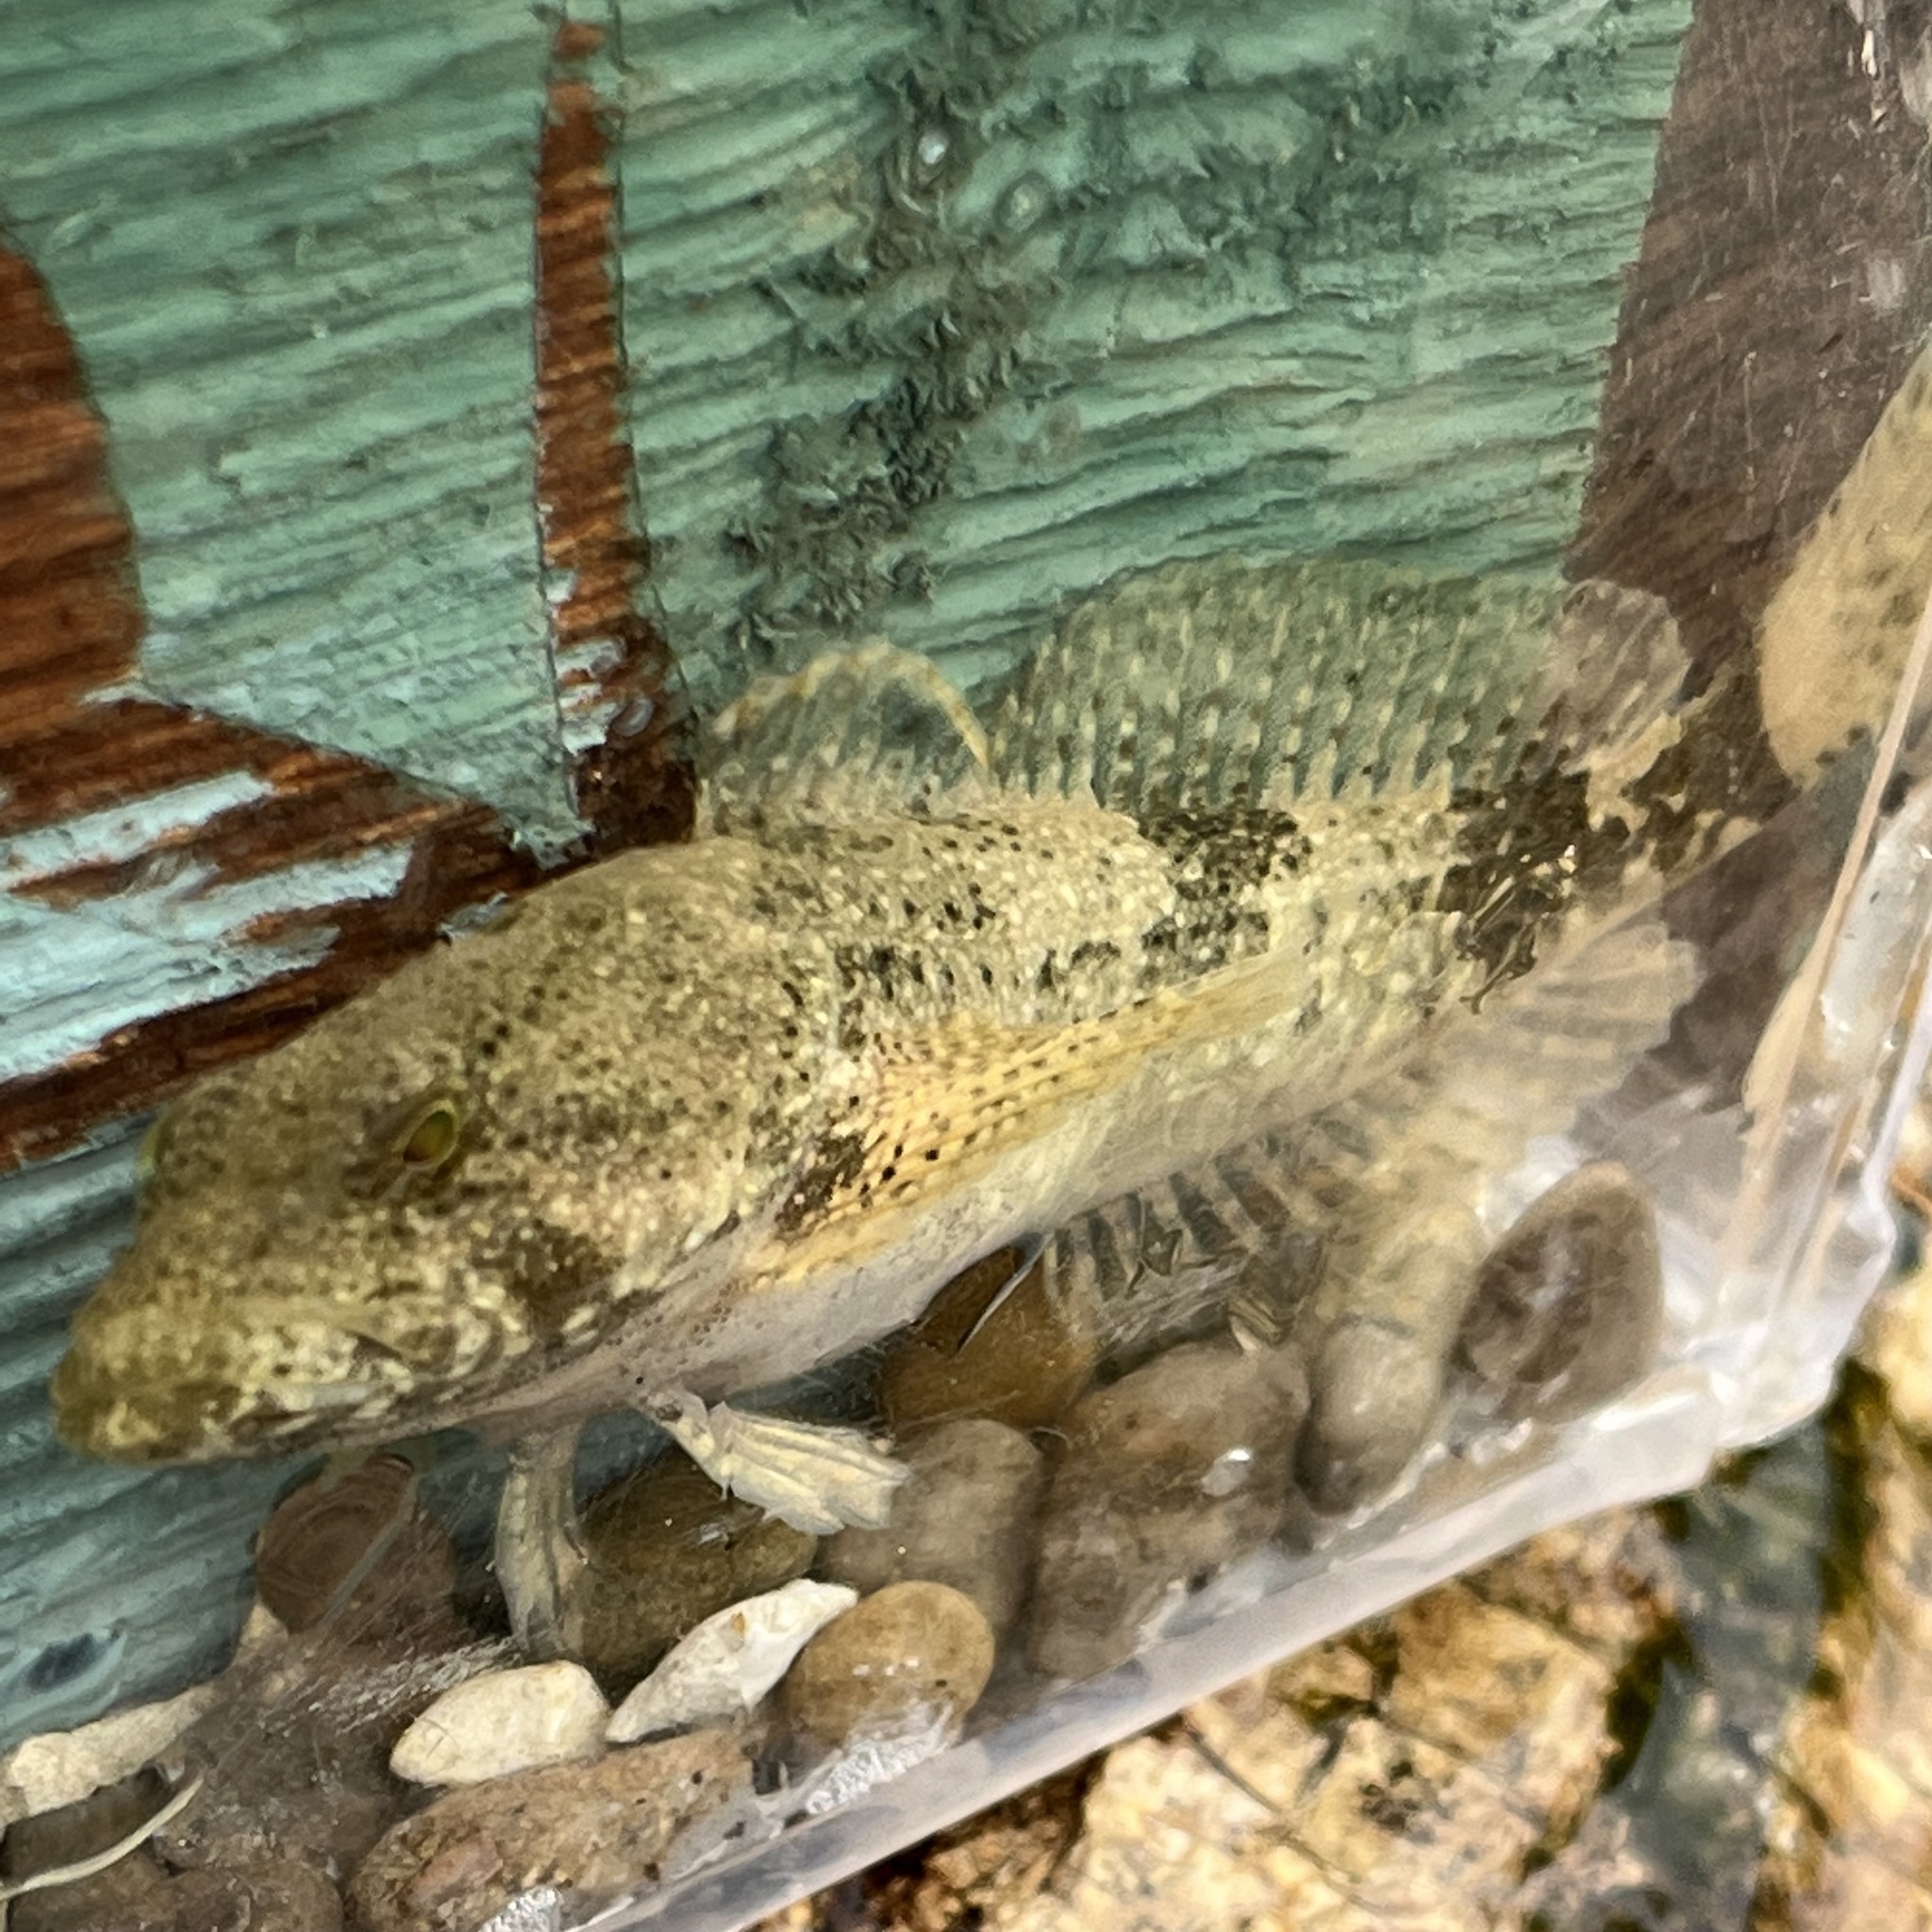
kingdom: Animalia
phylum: Chordata
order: Scorpaeniformes
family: Cottidae
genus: Cottus
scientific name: Cottus bairdii
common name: Mottled sculpin
